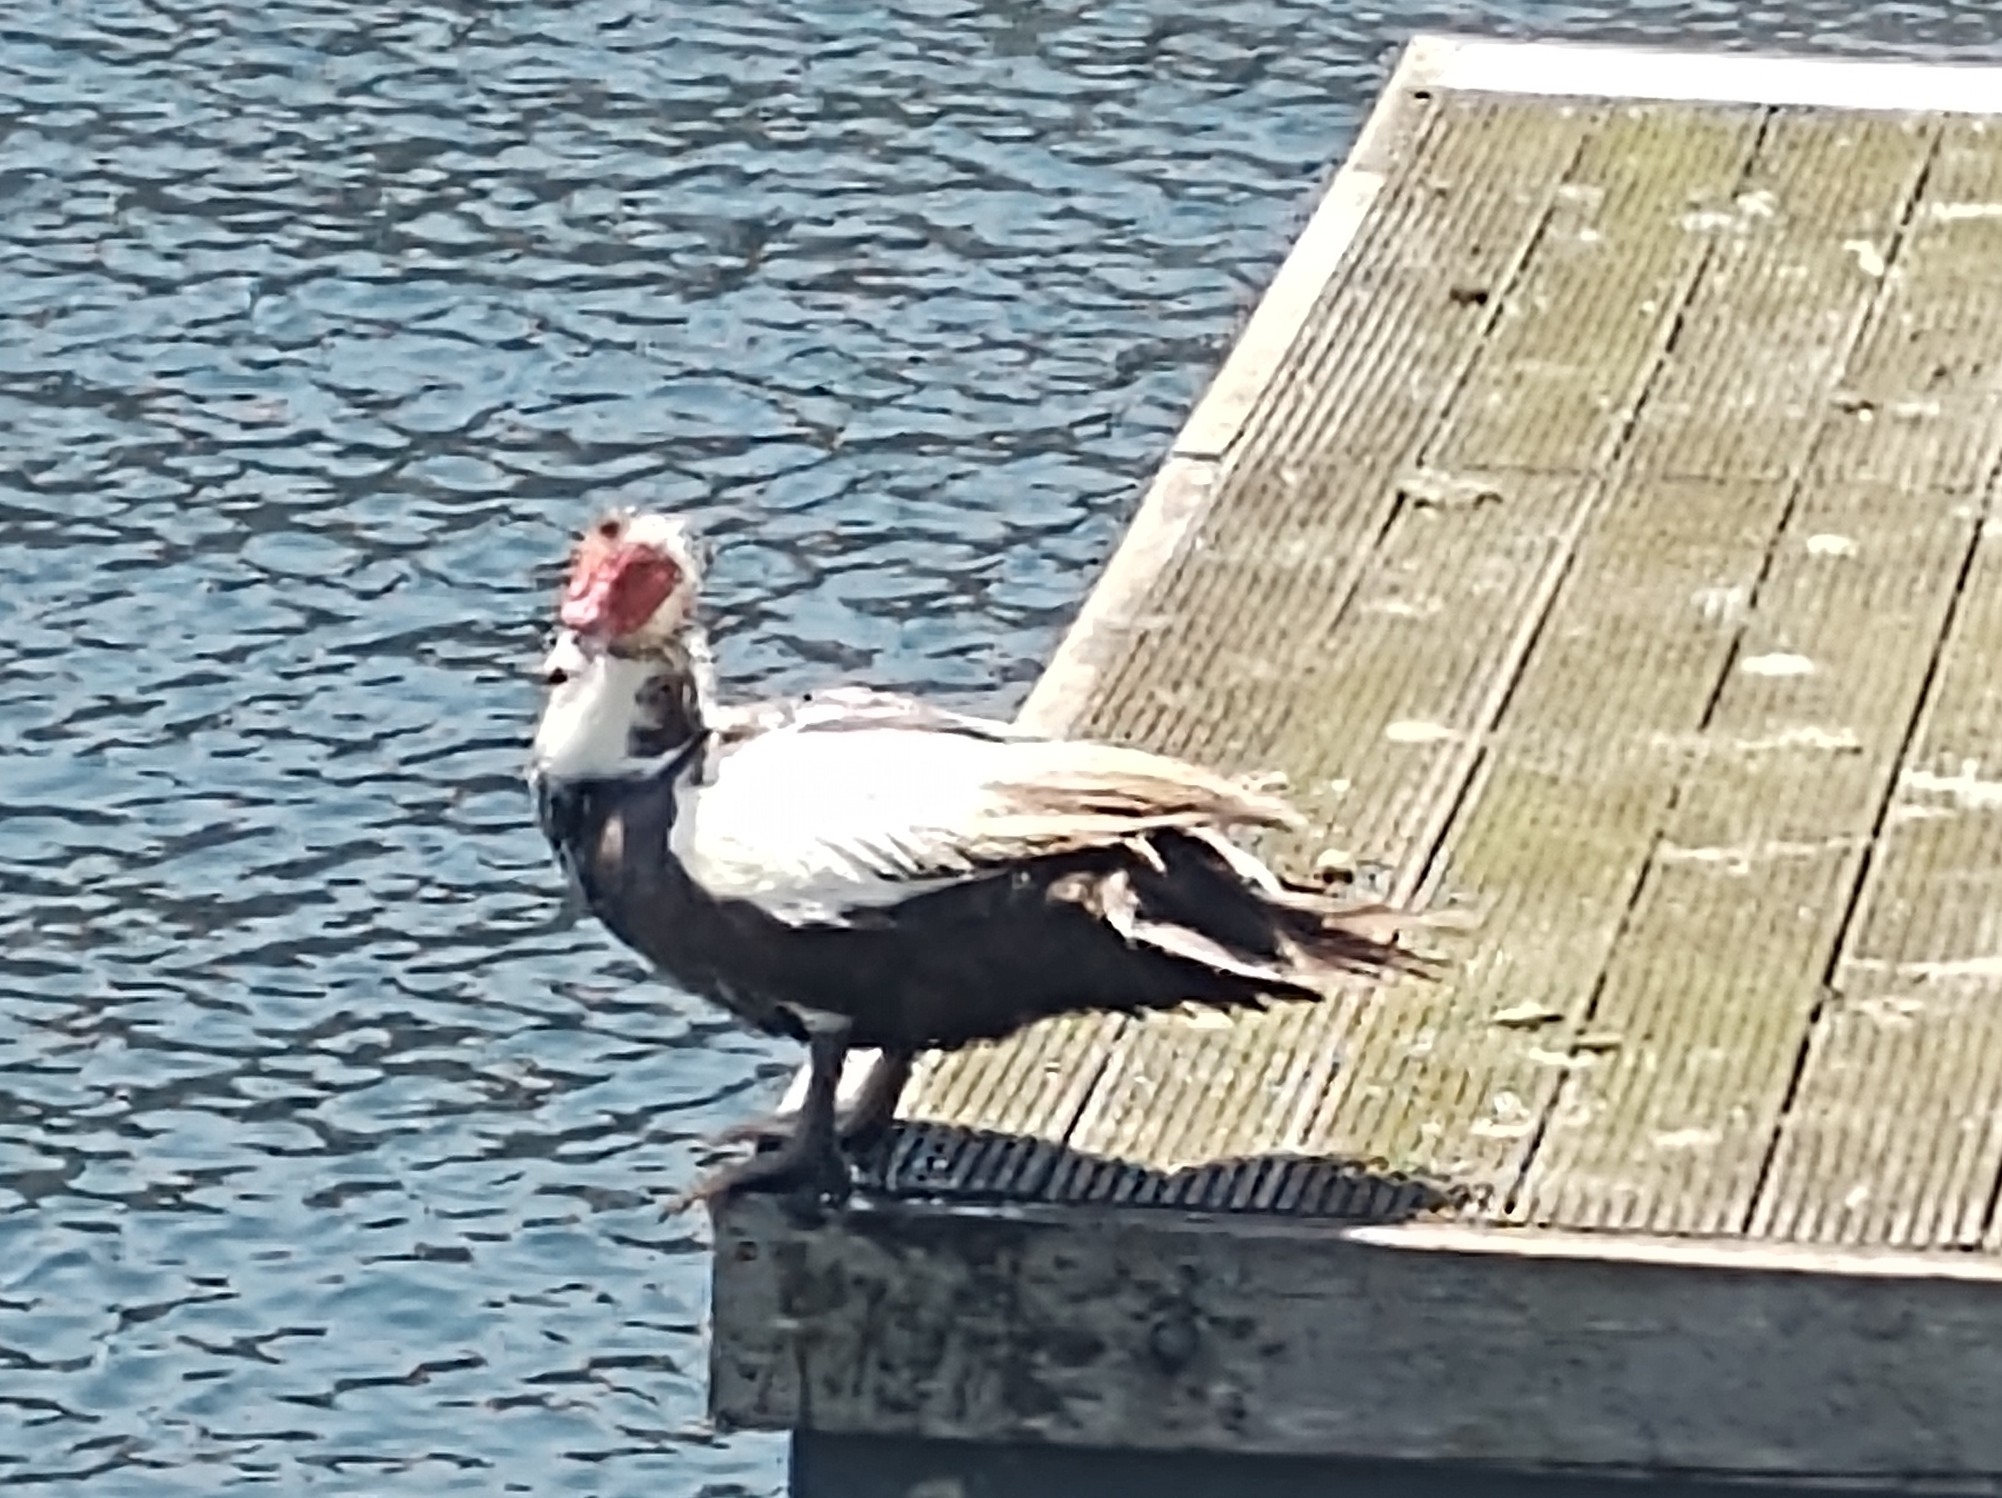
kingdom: Animalia
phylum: Chordata
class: Aves
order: Anseriformes
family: Anatidae
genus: Cairina
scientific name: Cairina moschata
